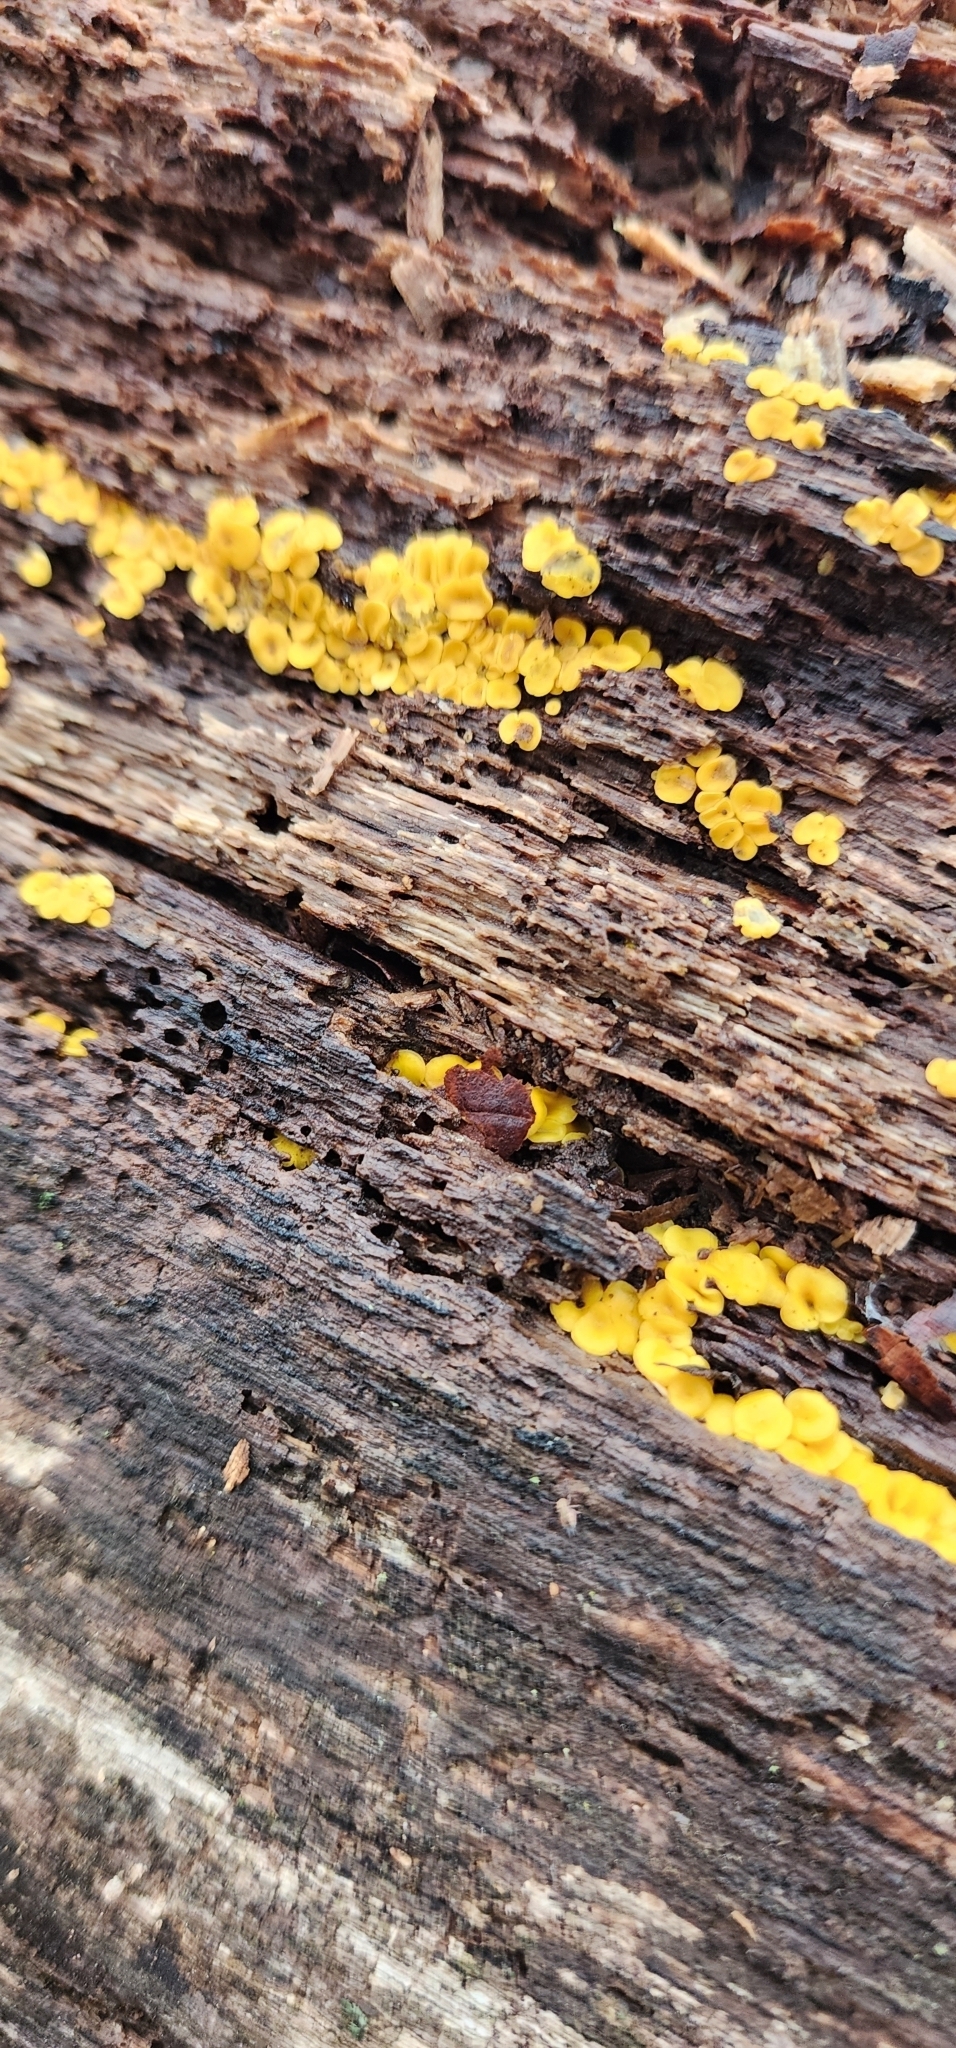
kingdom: Fungi
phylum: Ascomycota
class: Leotiomycetes
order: Helotiales
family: Pezizellaceae
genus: Calycina
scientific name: Calycina citrina
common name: Yellow fairy cups
